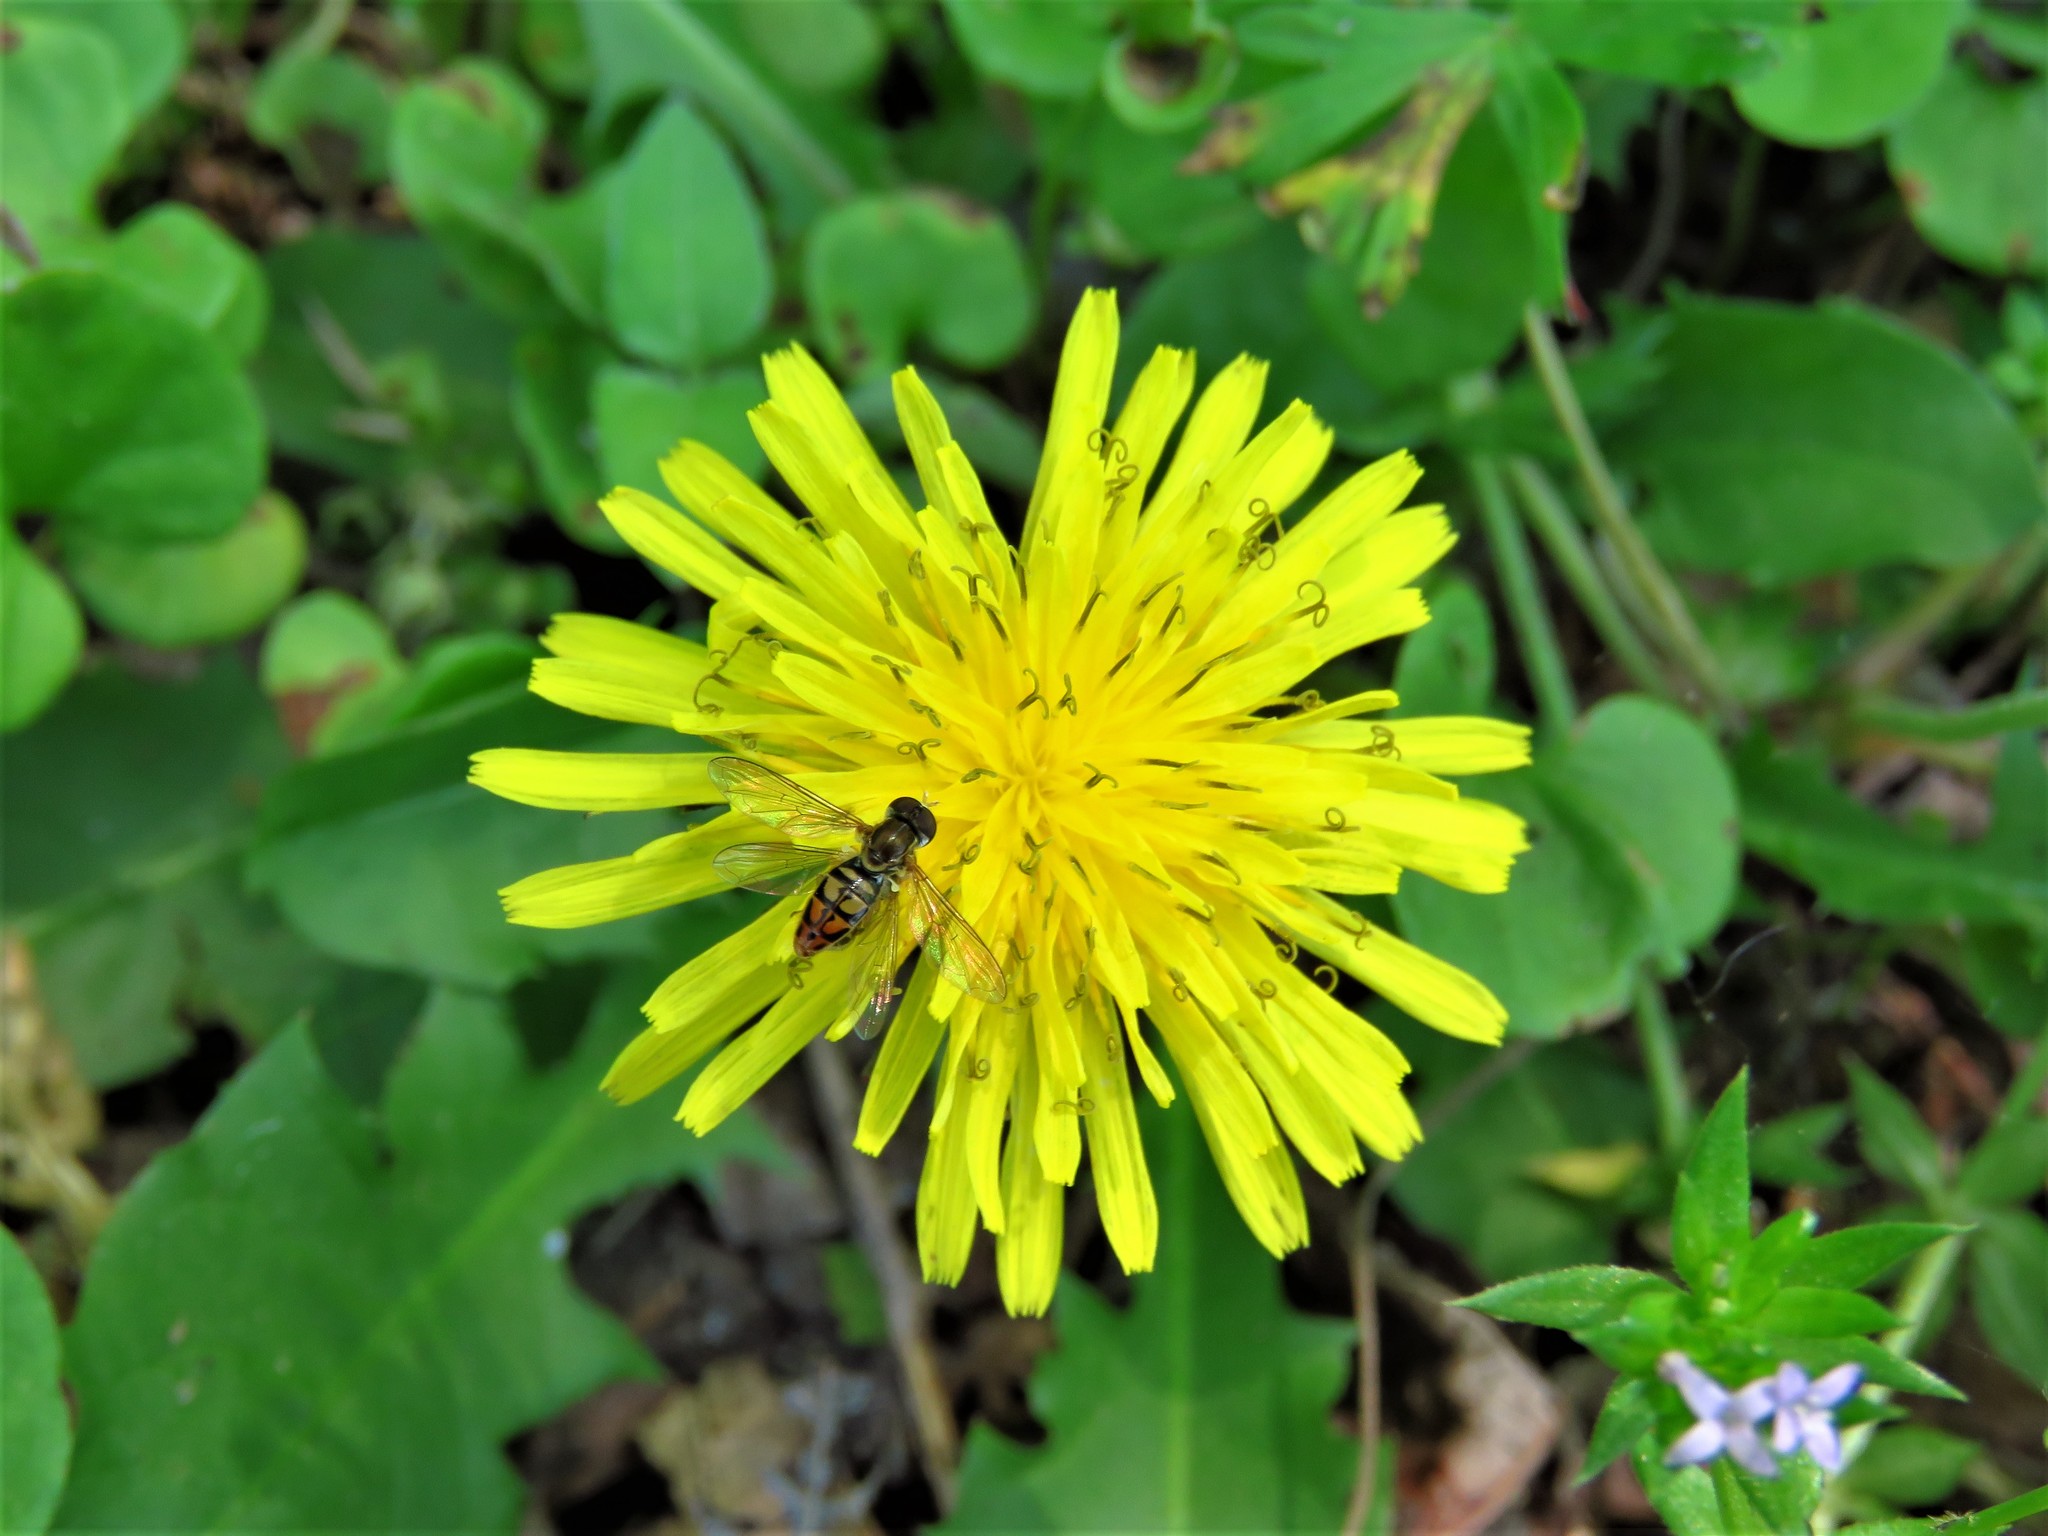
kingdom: Plantae
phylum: Tracheophyta
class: Magnoliopsida
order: Asterales
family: Asteraceae
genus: Taraxacum
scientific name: Taraxacum officinale
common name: Common dandelion
